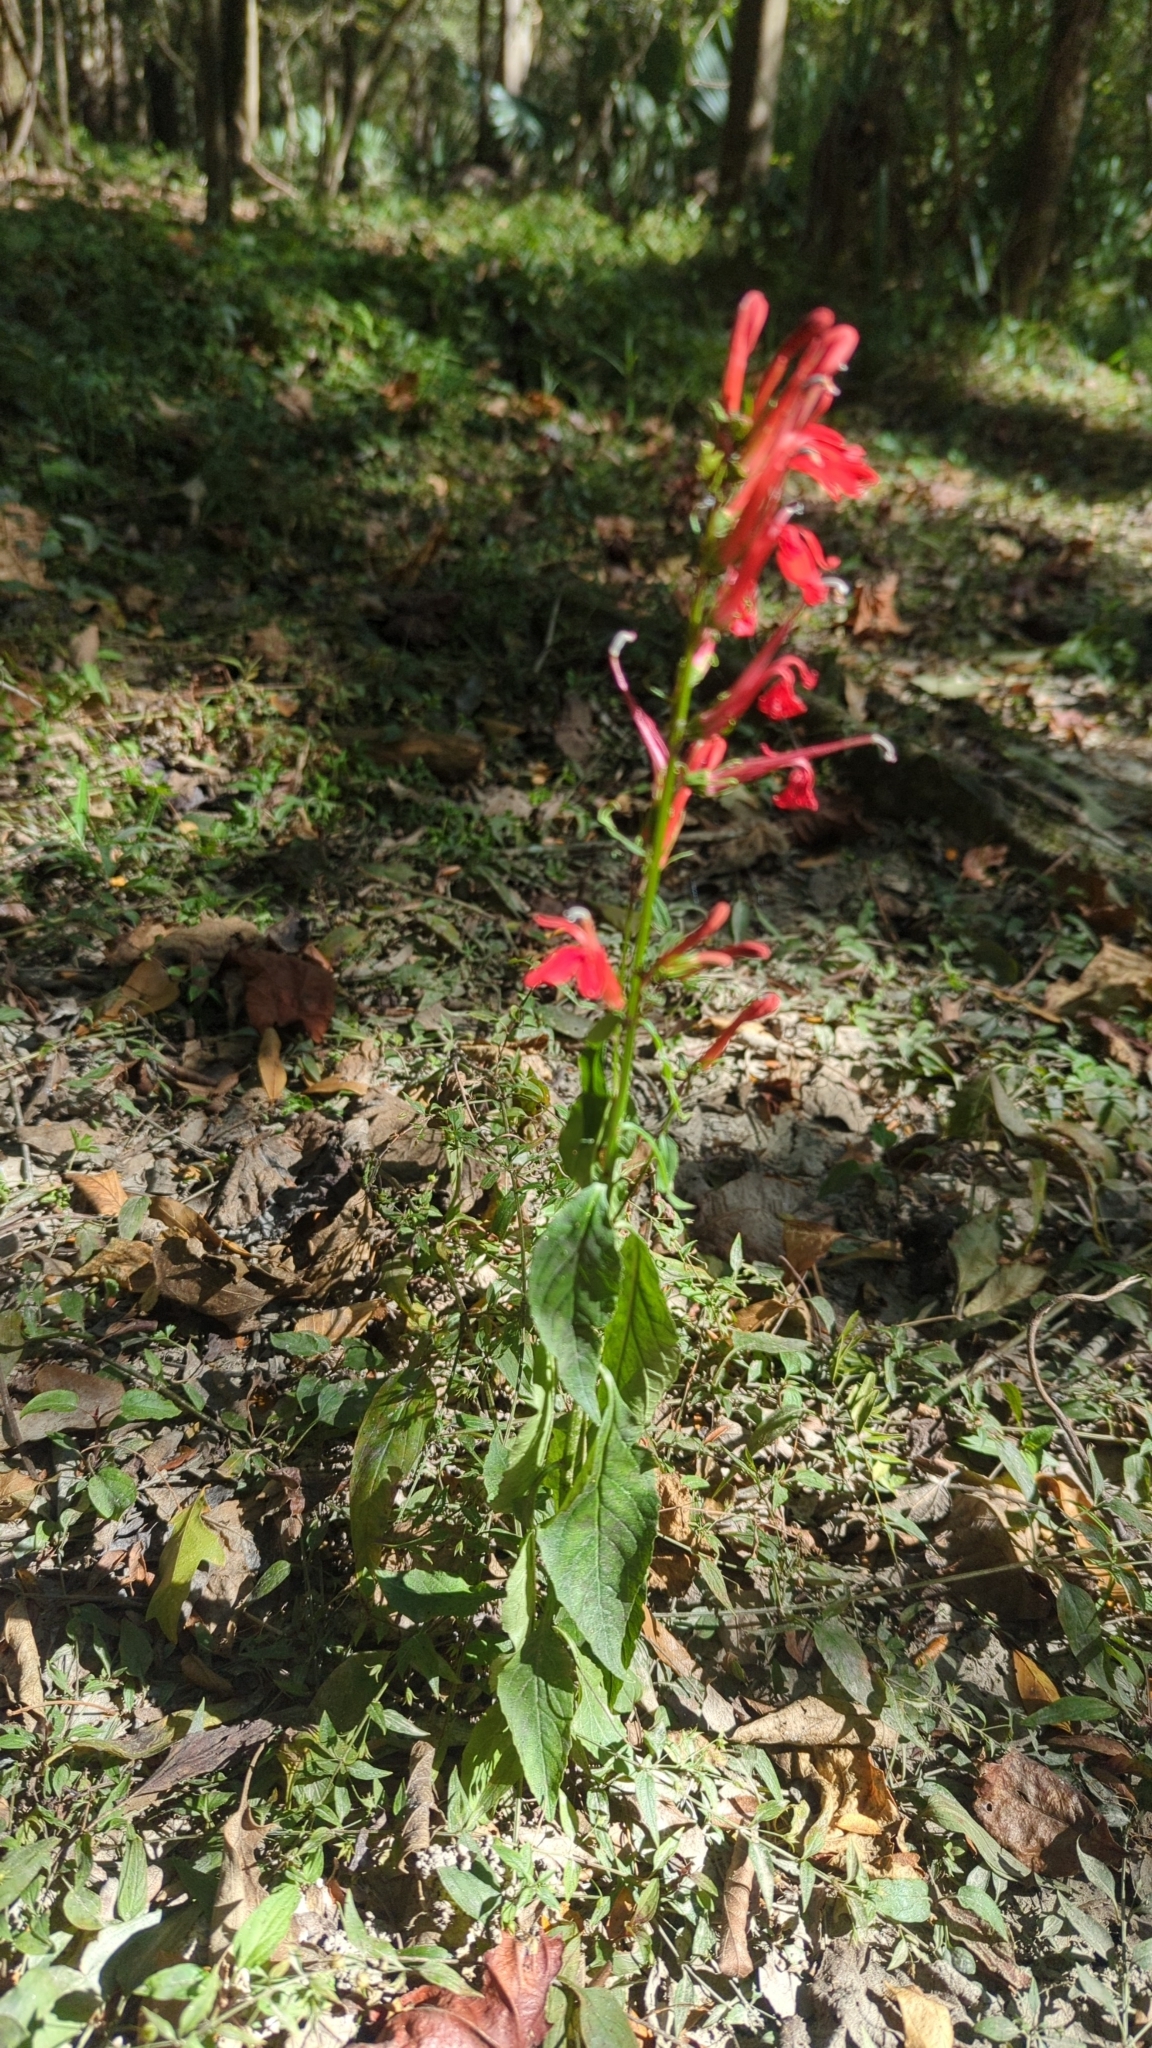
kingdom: Plantae
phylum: Tracheophyta
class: Magnoliopsida
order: Asterales
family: Campanulaceae
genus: Lobelia
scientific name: Lobelia cardinalis
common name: Cardinal flower
